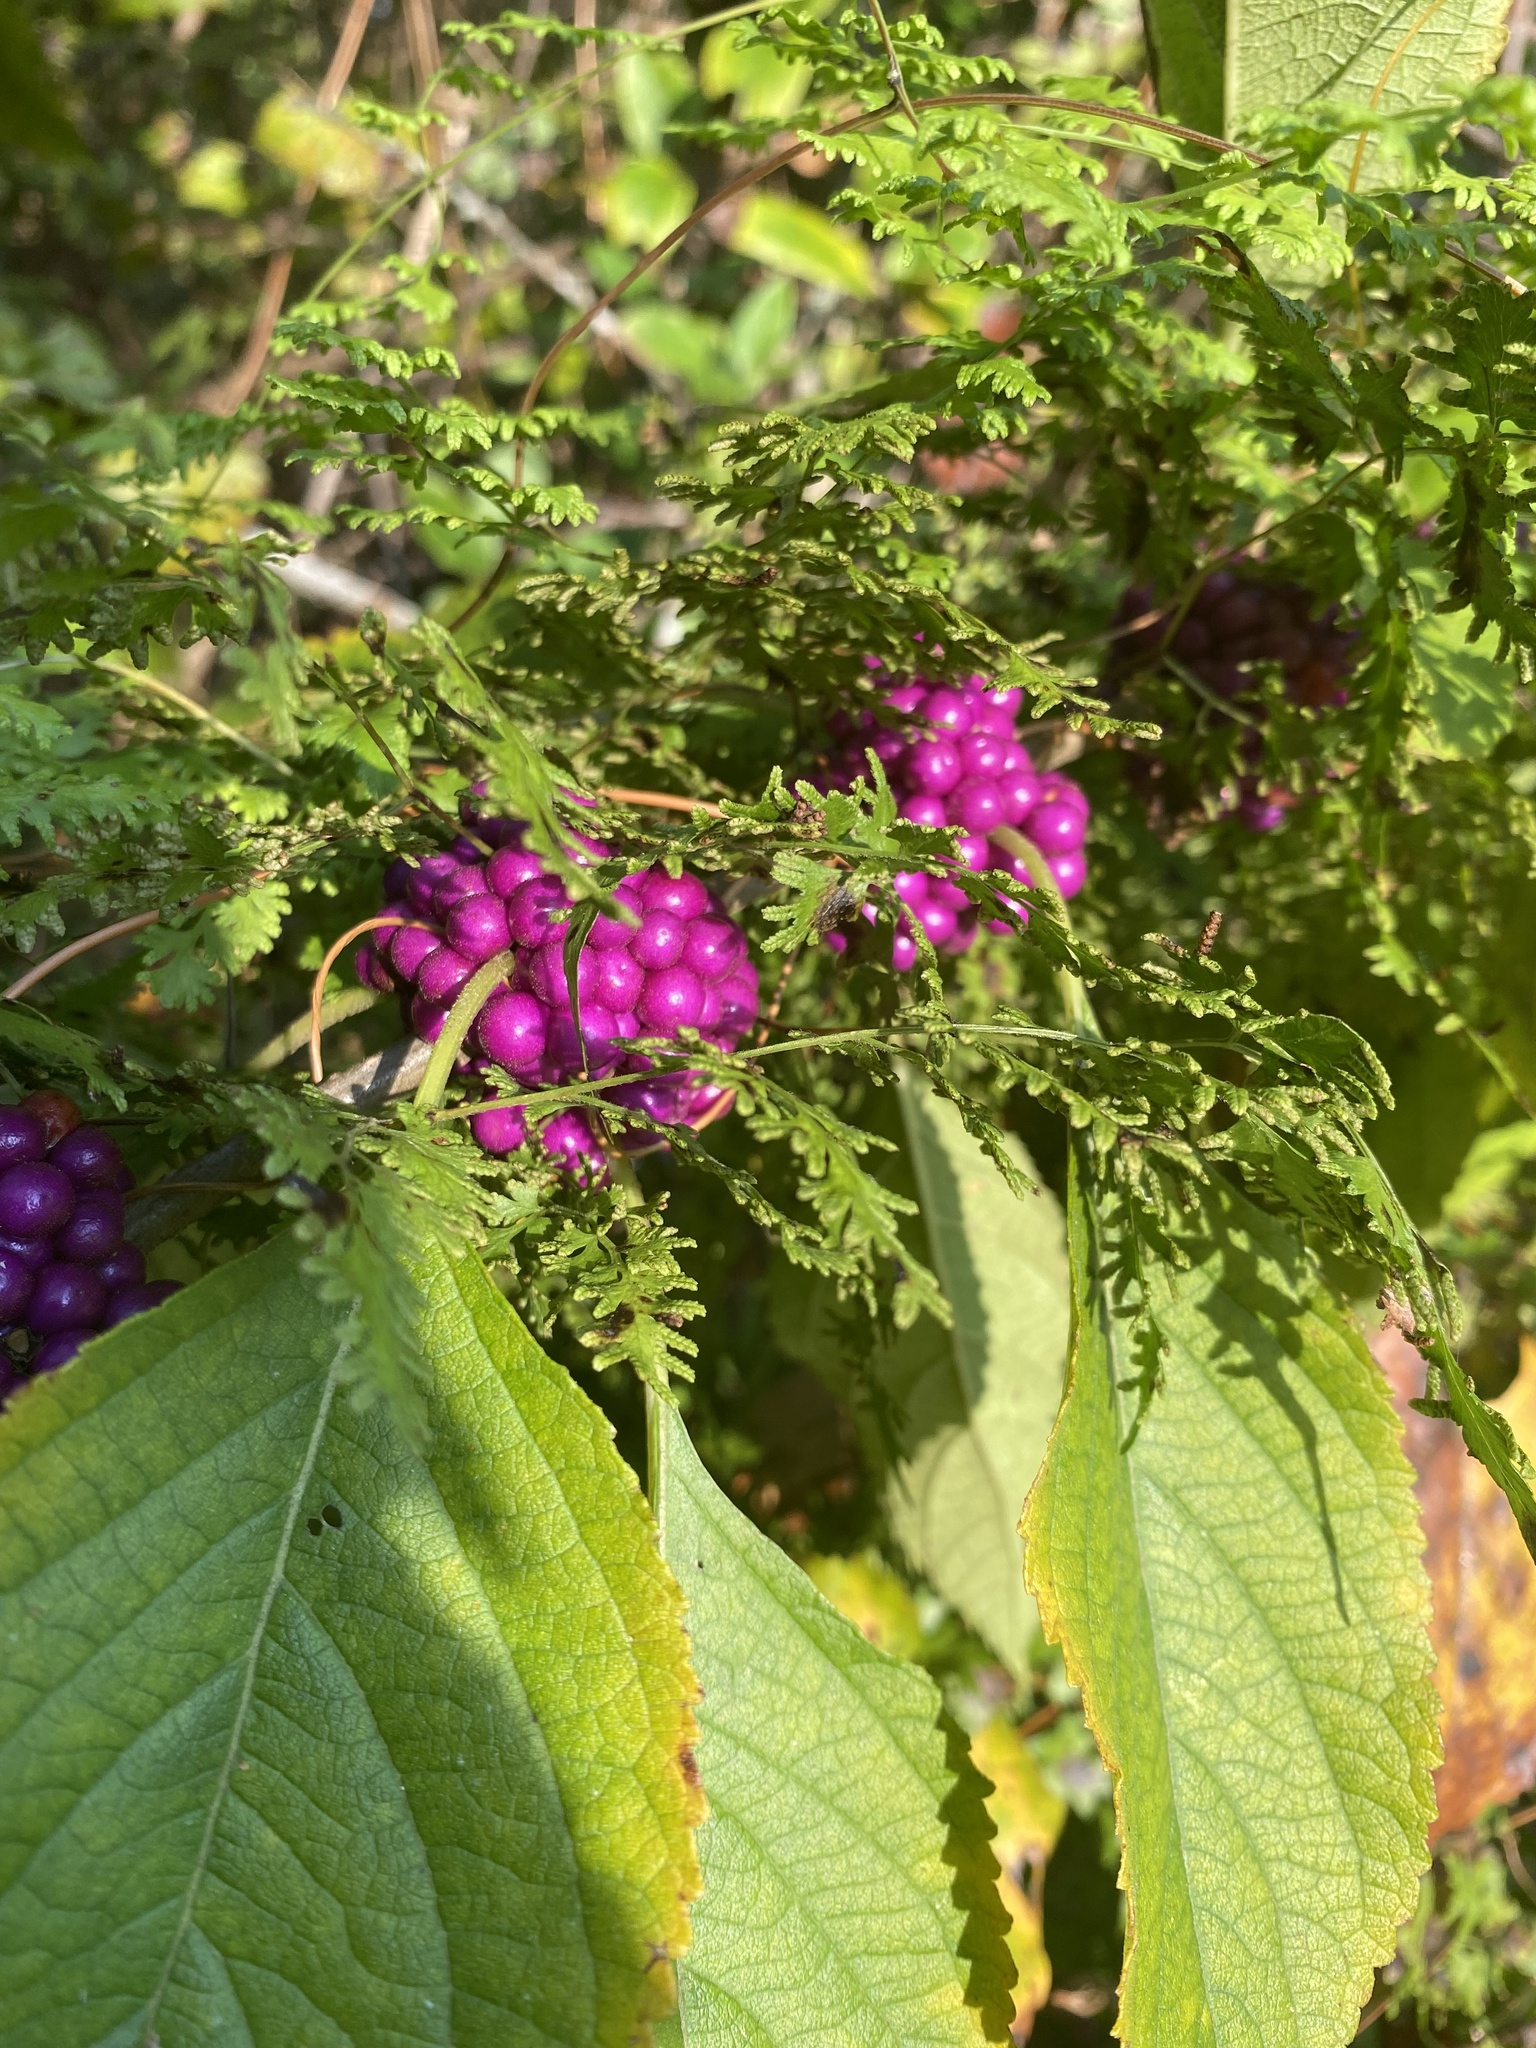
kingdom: Plantae
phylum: Tracheophyta
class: Magnoliopsida
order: Lamiales
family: Lamiaceae
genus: Callicarpa
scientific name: Callicarpa americana
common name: American beautyberry
